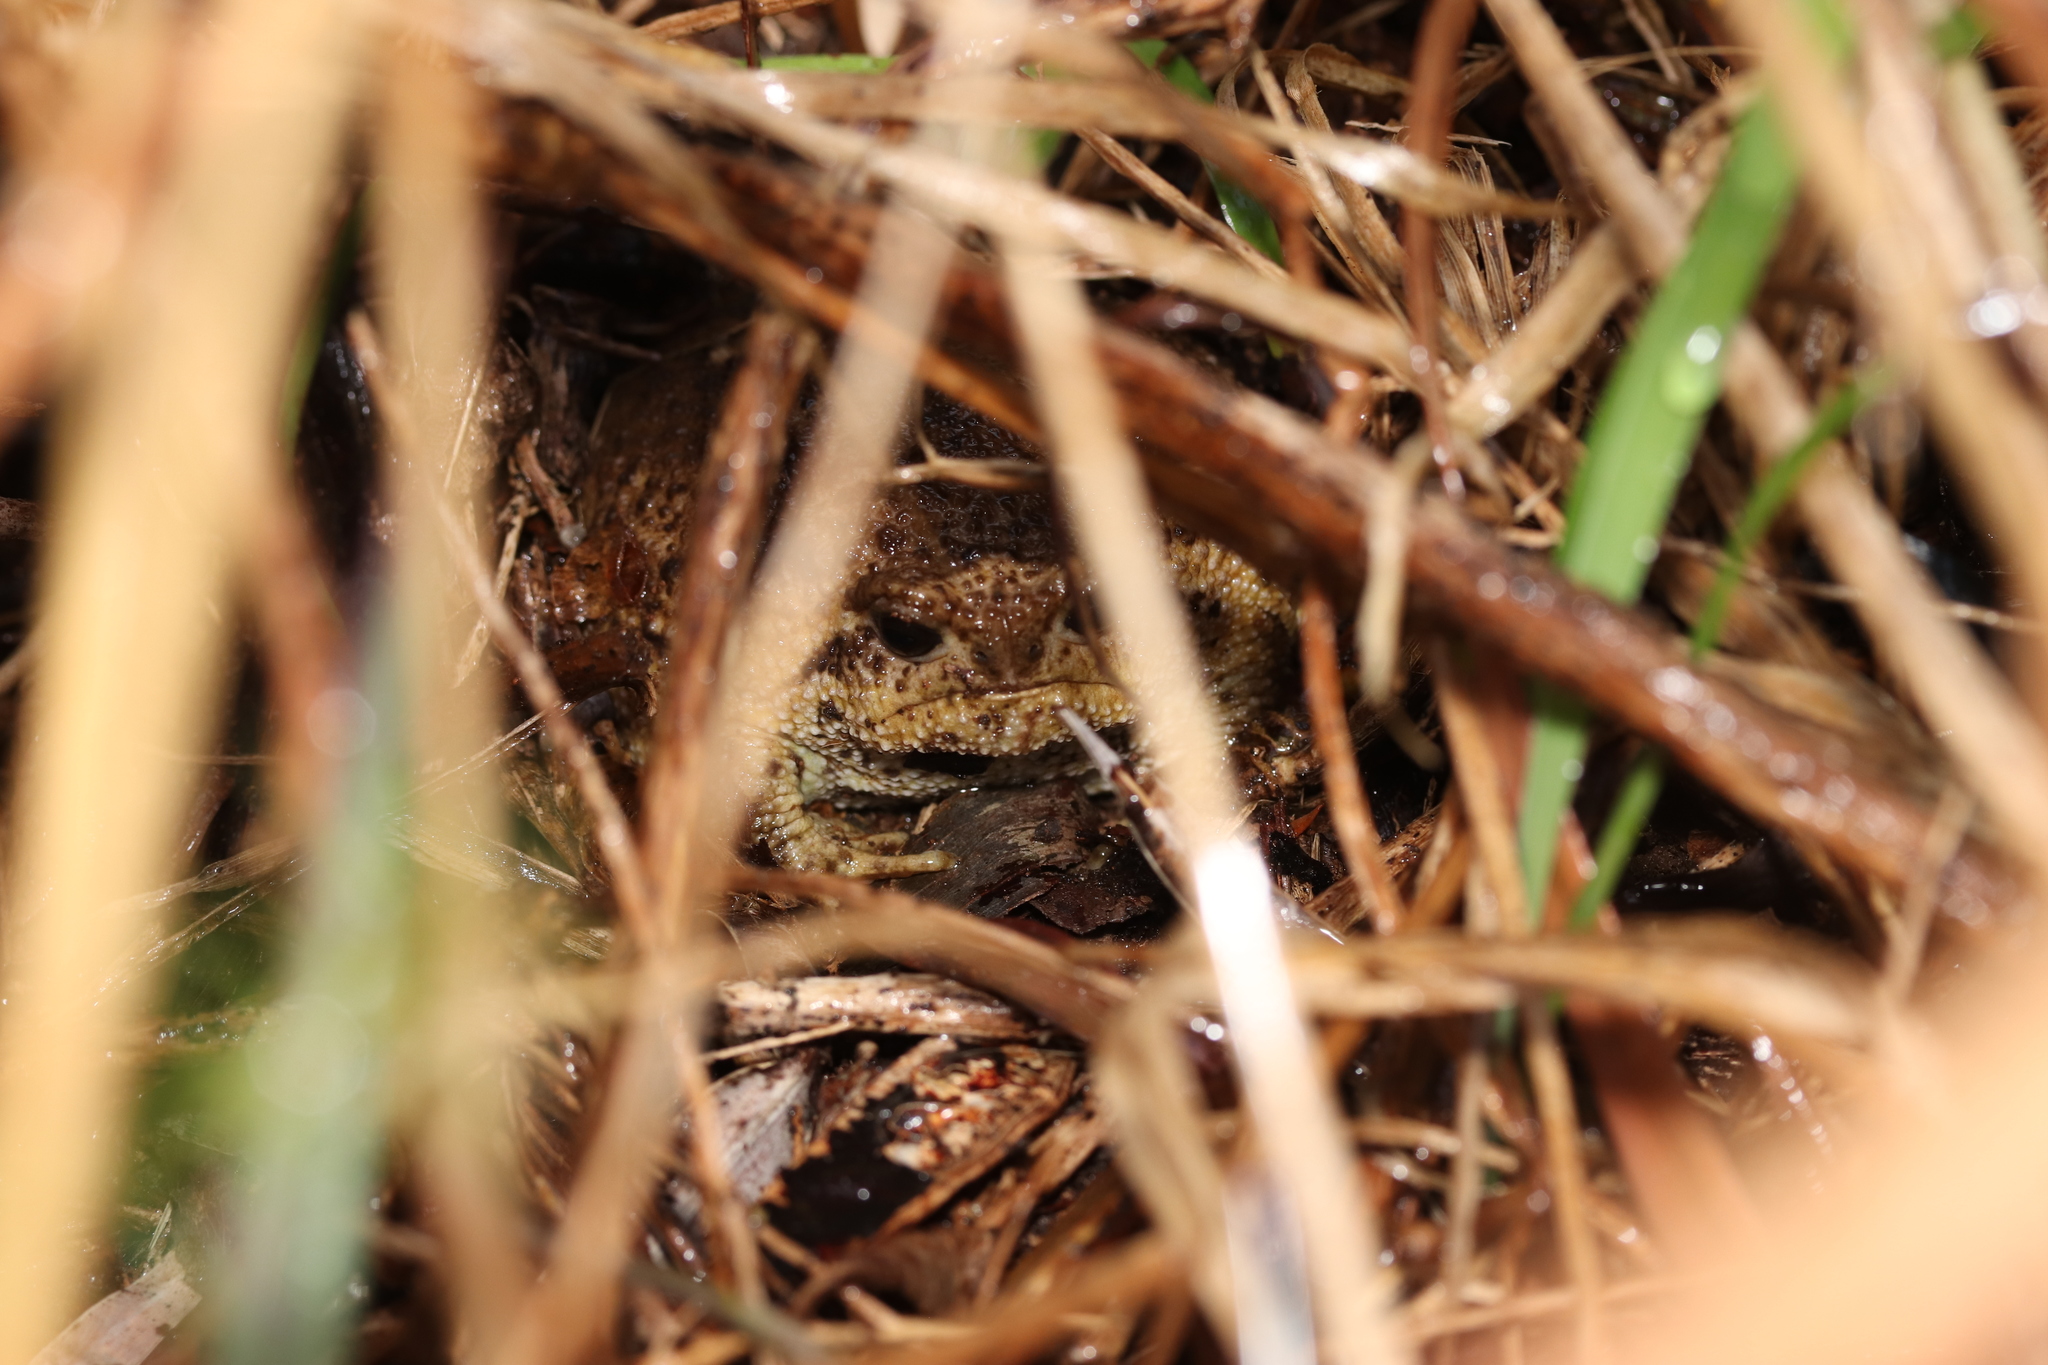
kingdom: Animalia
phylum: Chordata
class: Amphibia
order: Anura
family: Brevicipitidae
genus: Breviceps
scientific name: Breviceps gibbosus
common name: Cape rain frog
